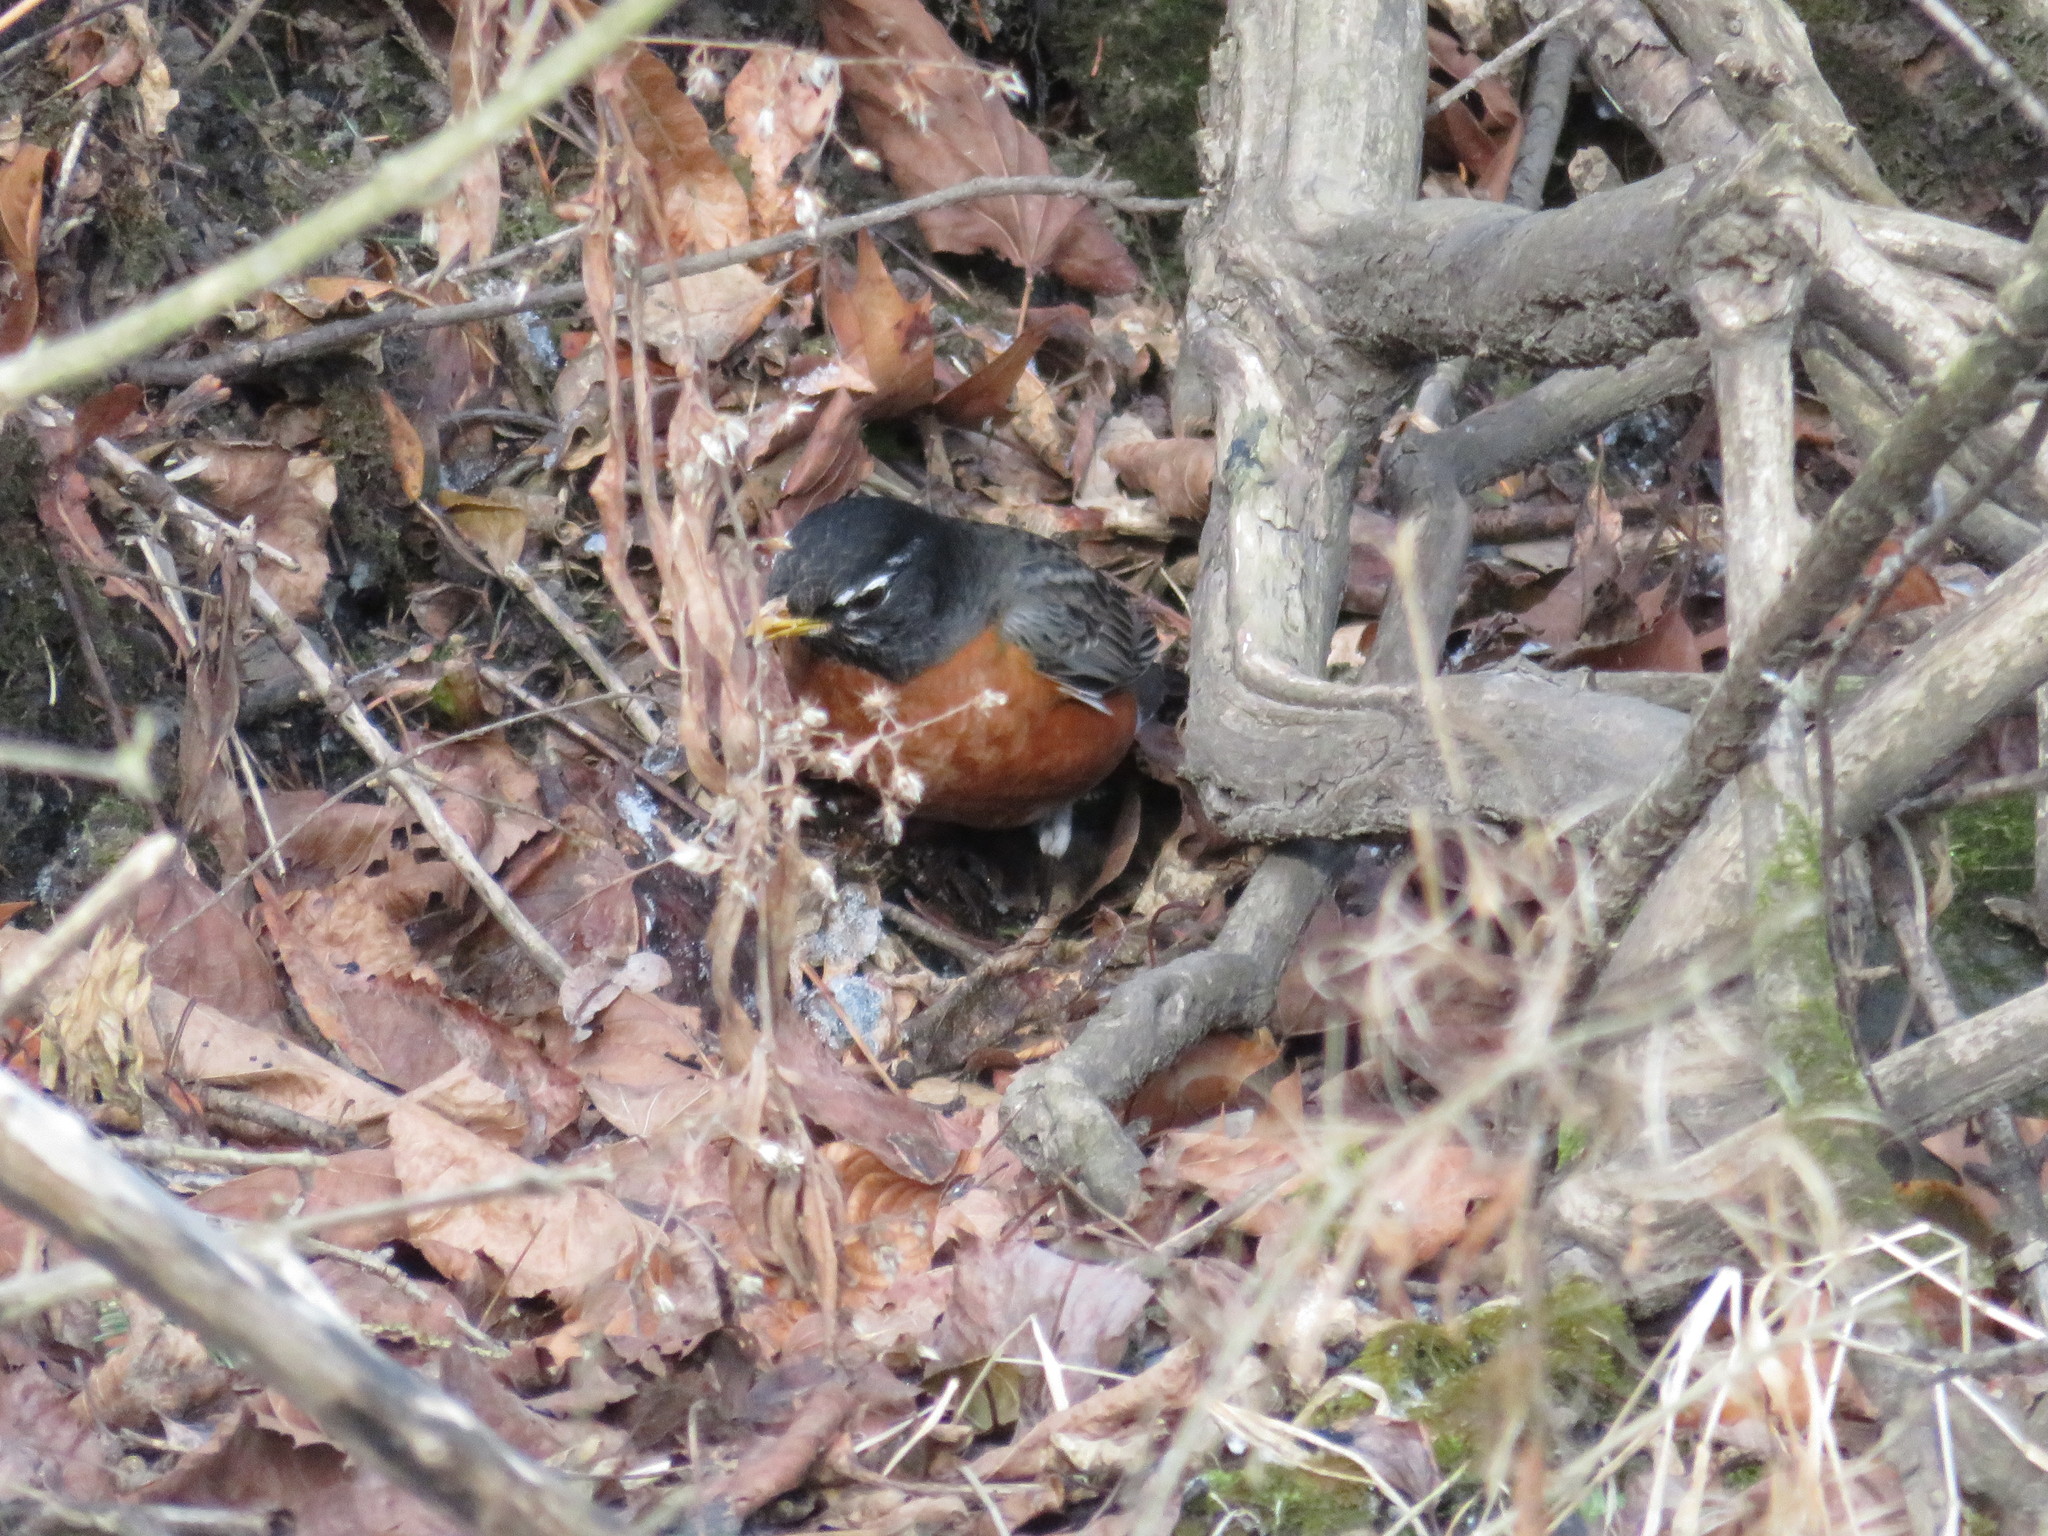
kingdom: Animalia
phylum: Chordata
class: Aves
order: Passeriformes
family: Turdidae
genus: Turdus
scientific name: Turdus migratorius
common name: American robin
